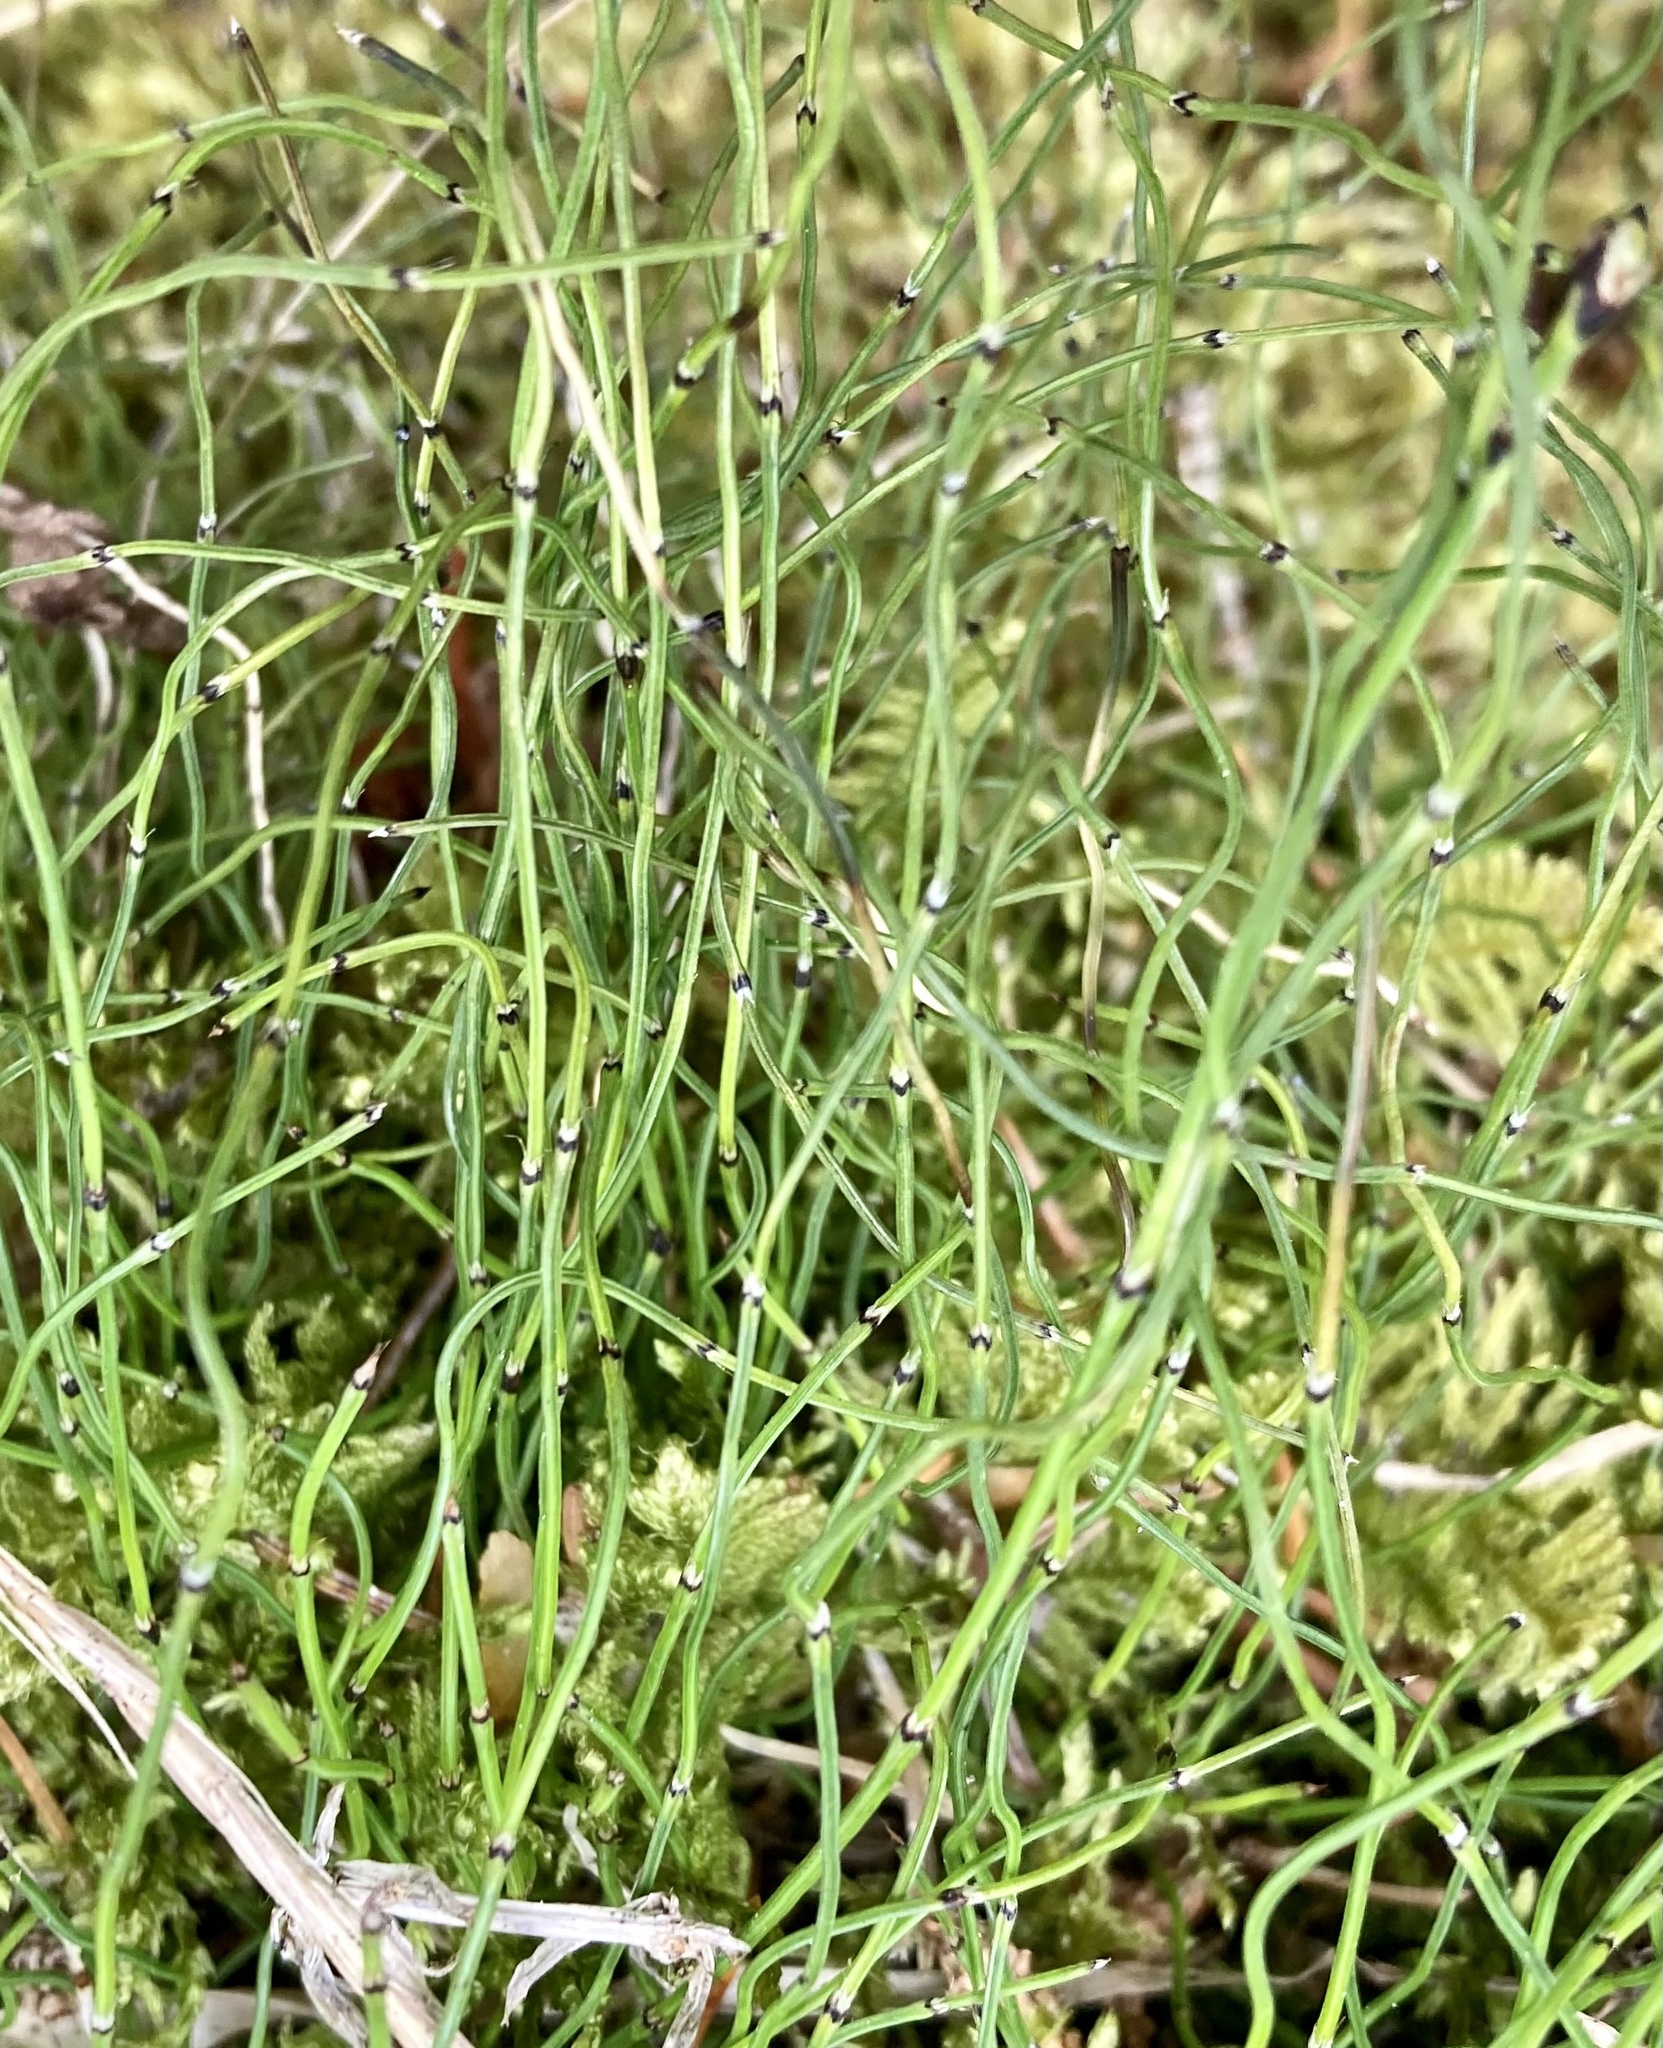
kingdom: Plantae
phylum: Tracheophyta
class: Polypodiopsida
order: Equisetales
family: Equisetaceae
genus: Equisetum
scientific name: Equisetum scirpoides
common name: Delicate horsetail
